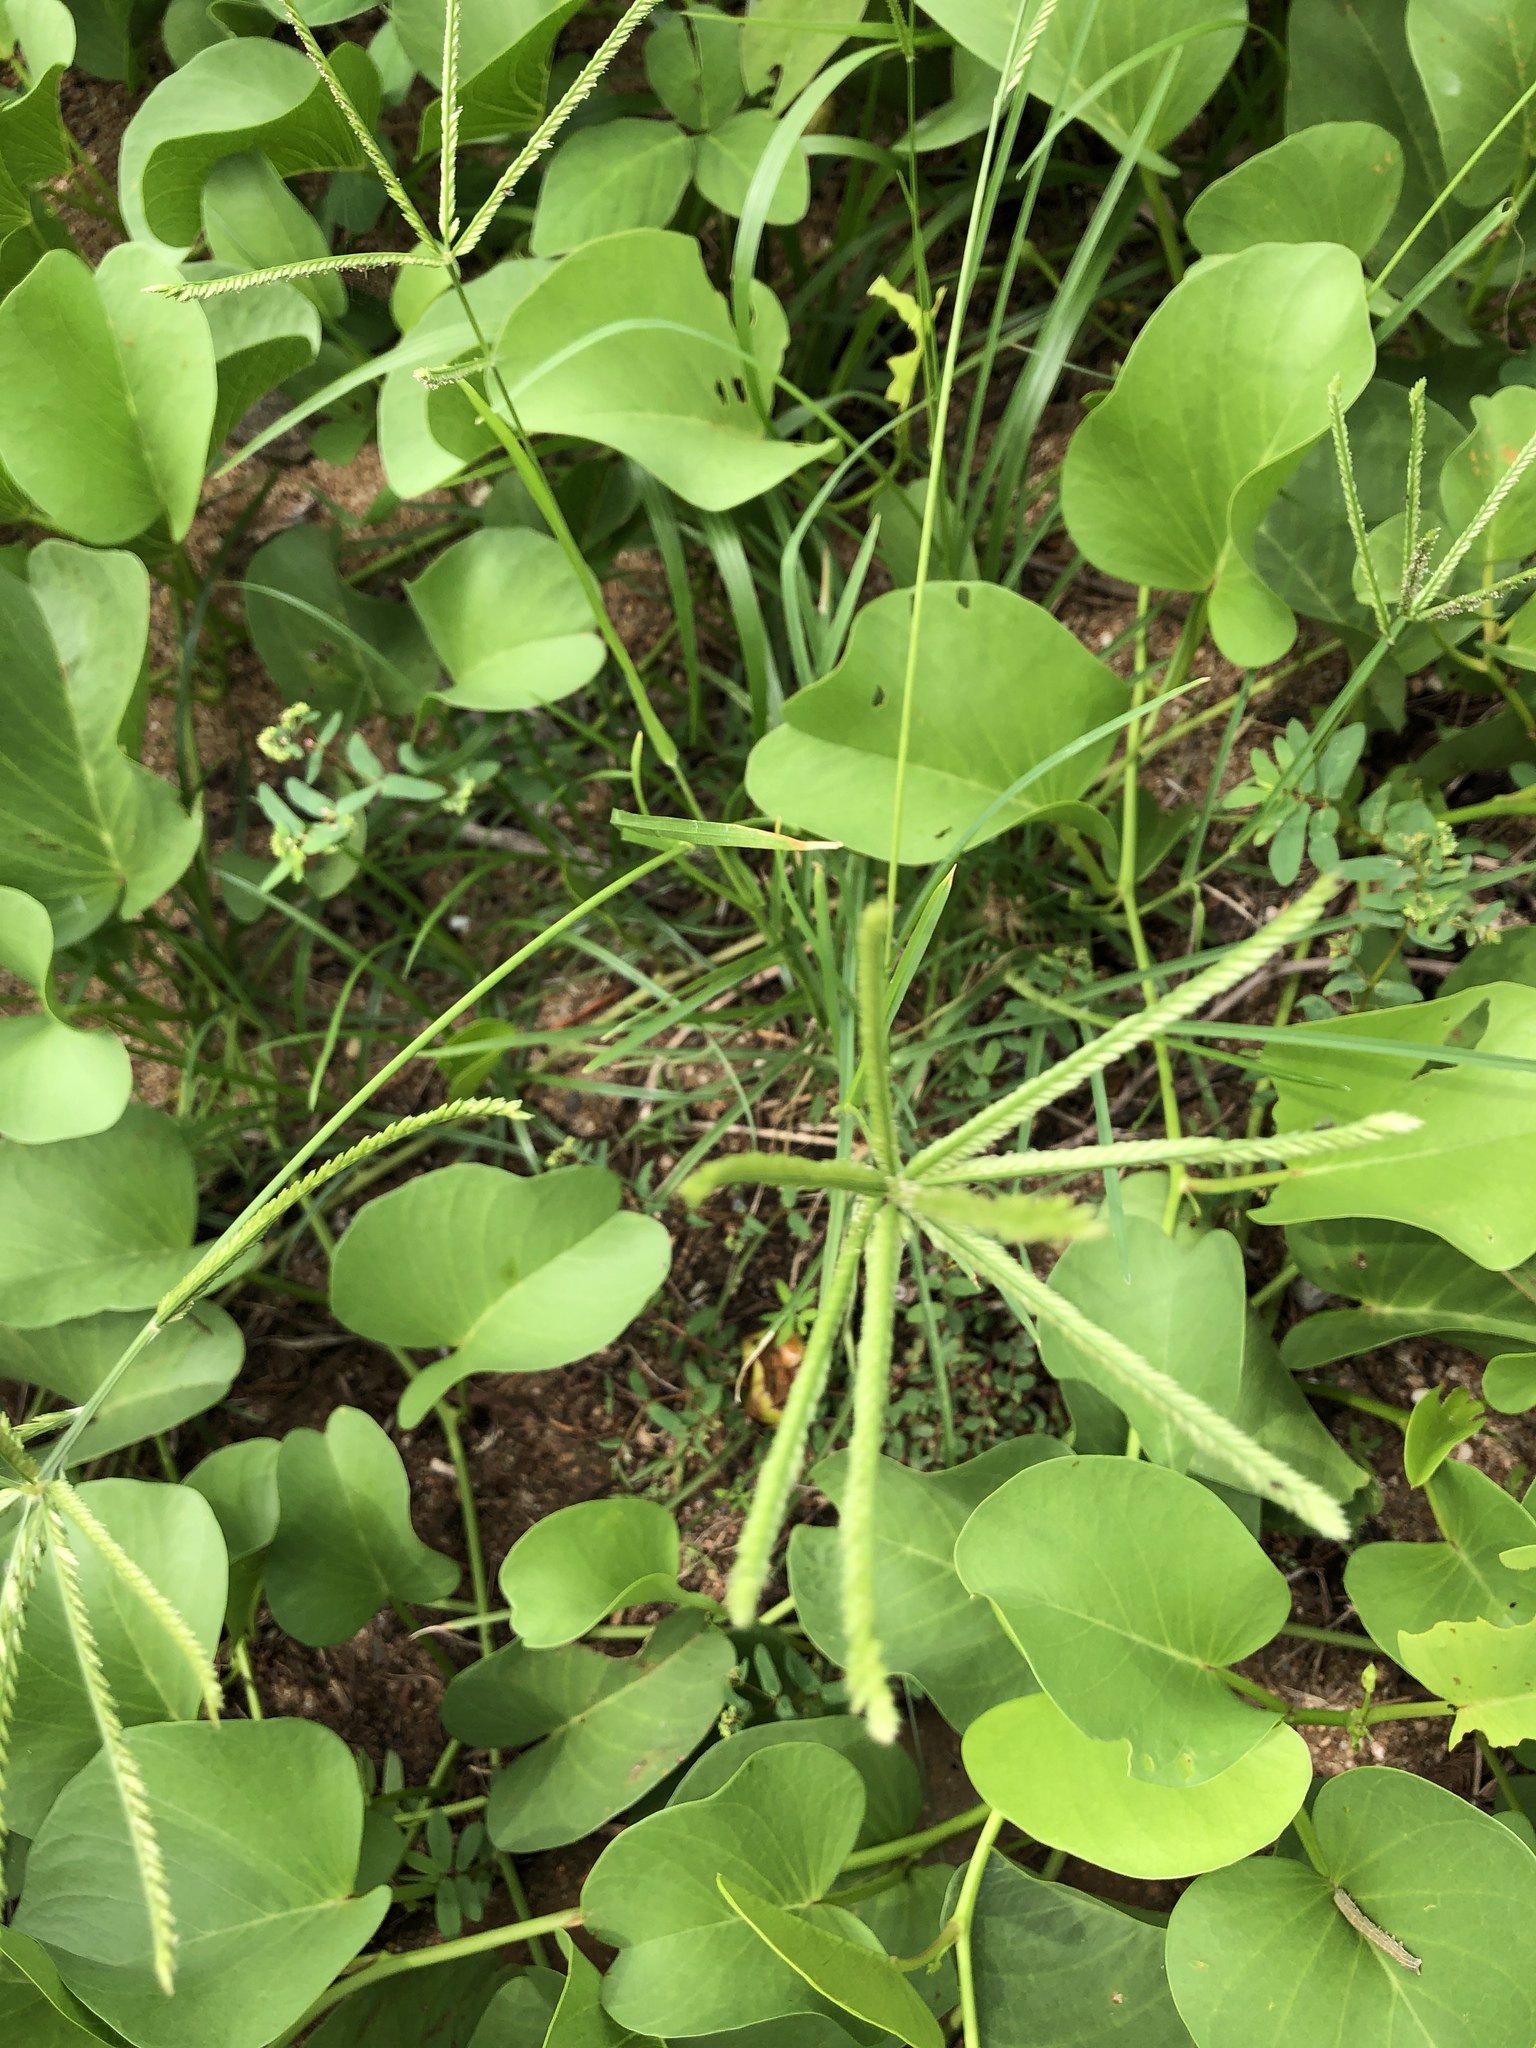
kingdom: Plantae
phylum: Tracheophyta
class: Liliopsida
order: Poales
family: Poaceae
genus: Eleusine
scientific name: Eleusine indica
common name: Yard-grass
